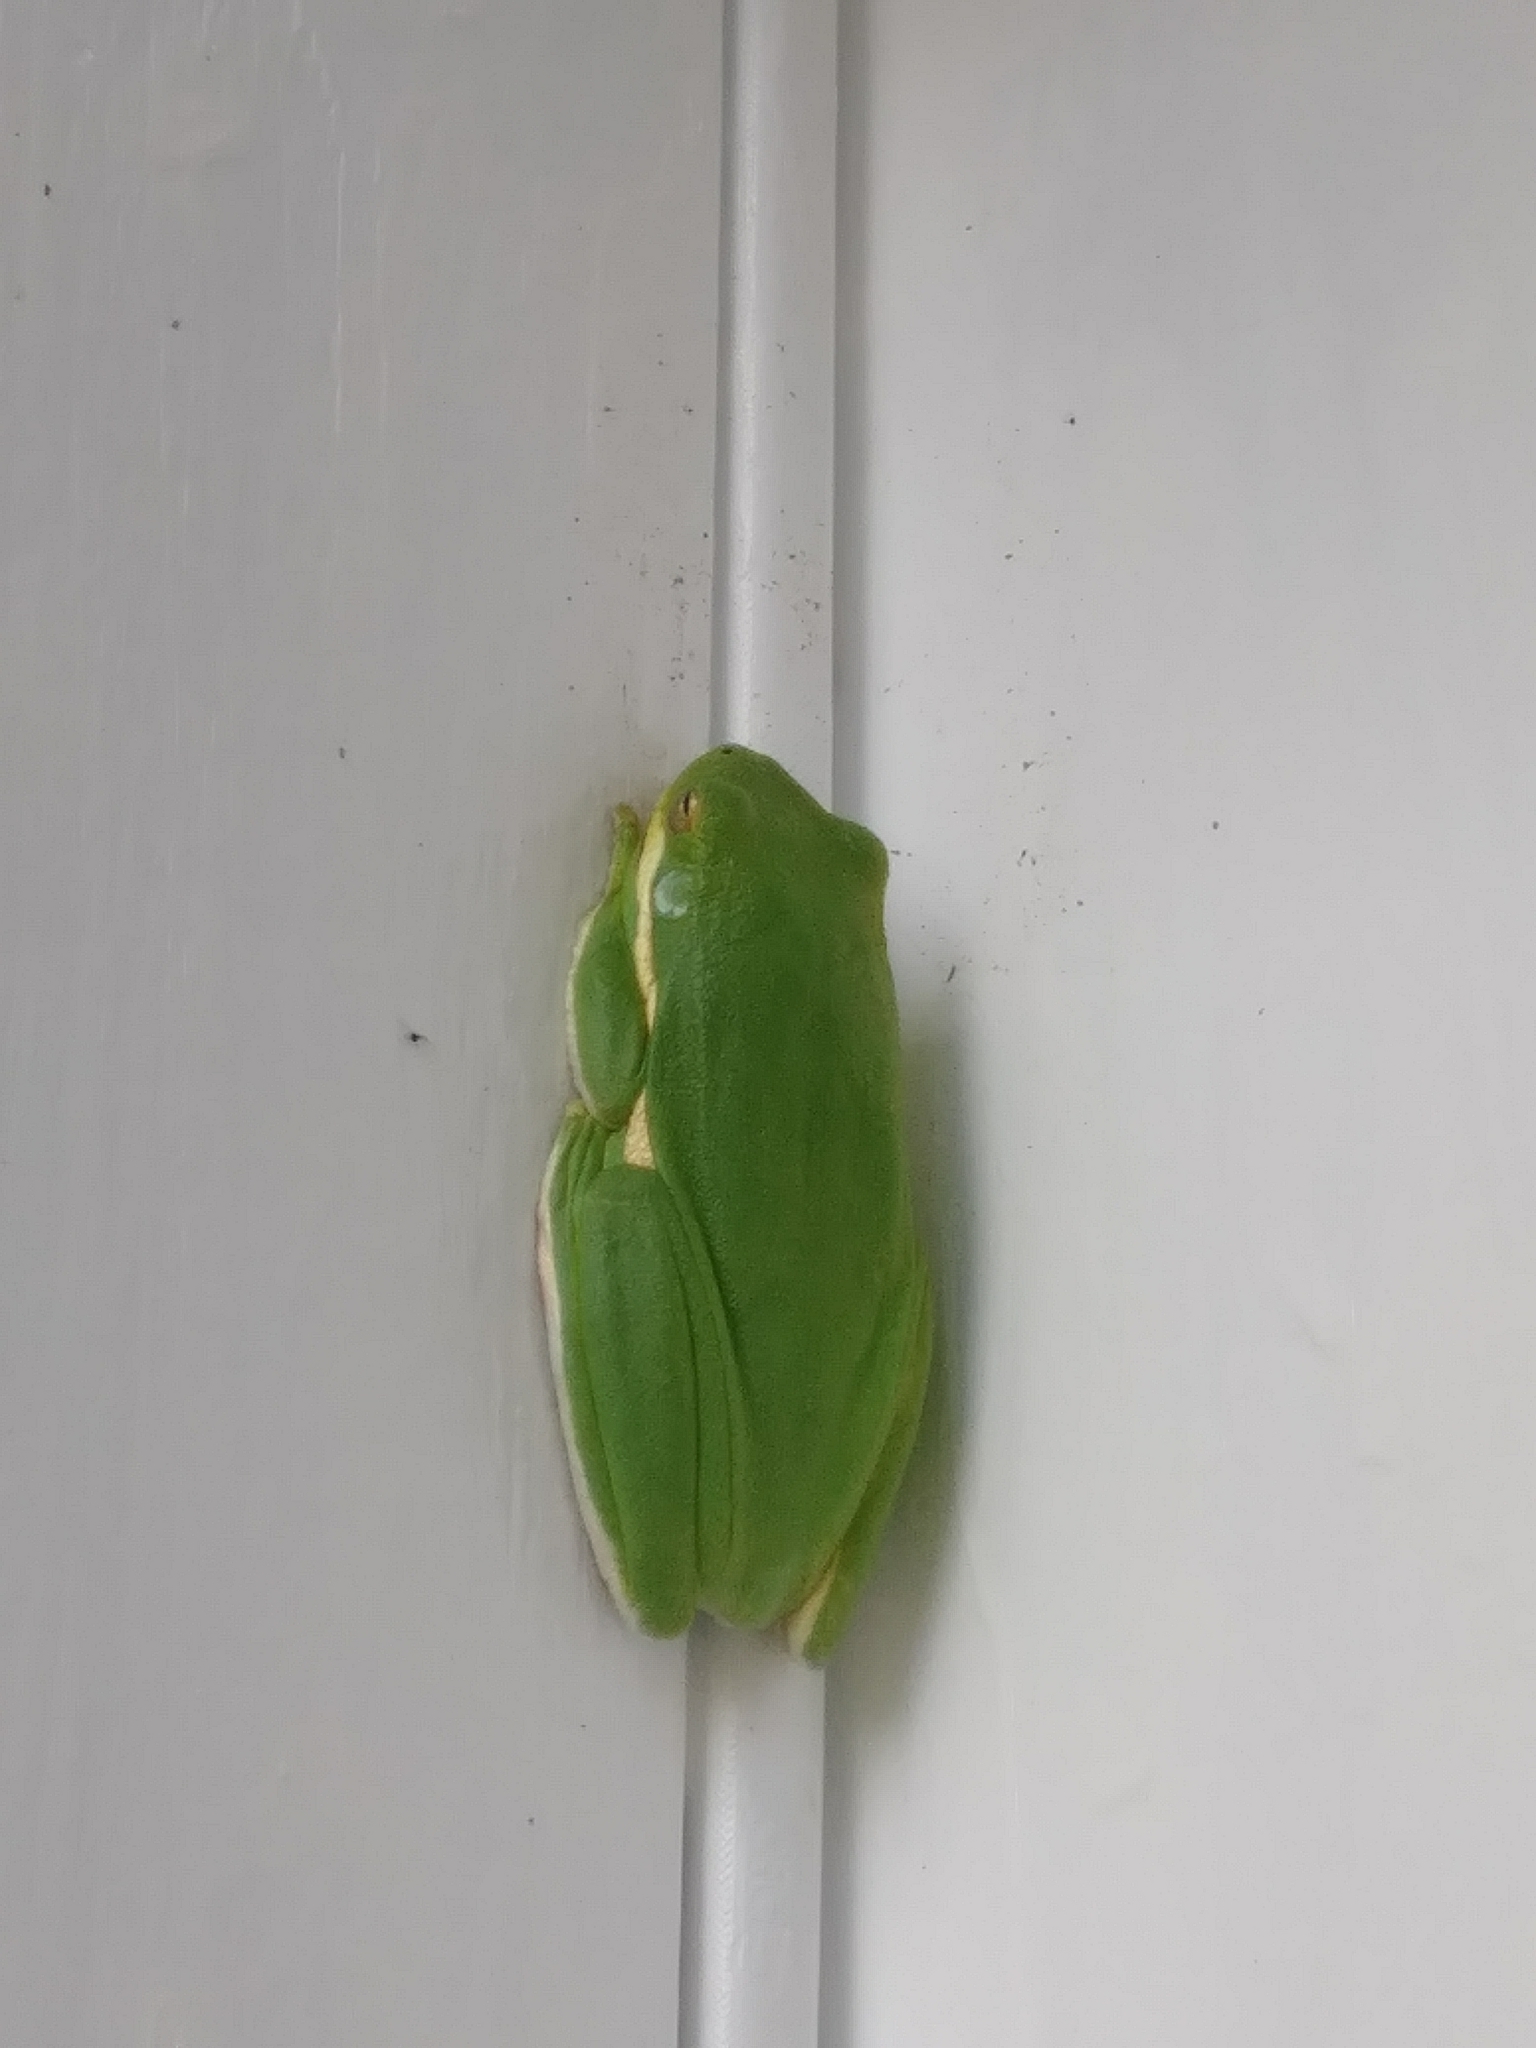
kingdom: Animalia
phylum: Chordata
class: Amphibia
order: Anura
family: Hylidae
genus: Dryophytes
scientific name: Dryophytes cinereus
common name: Green treefrog
